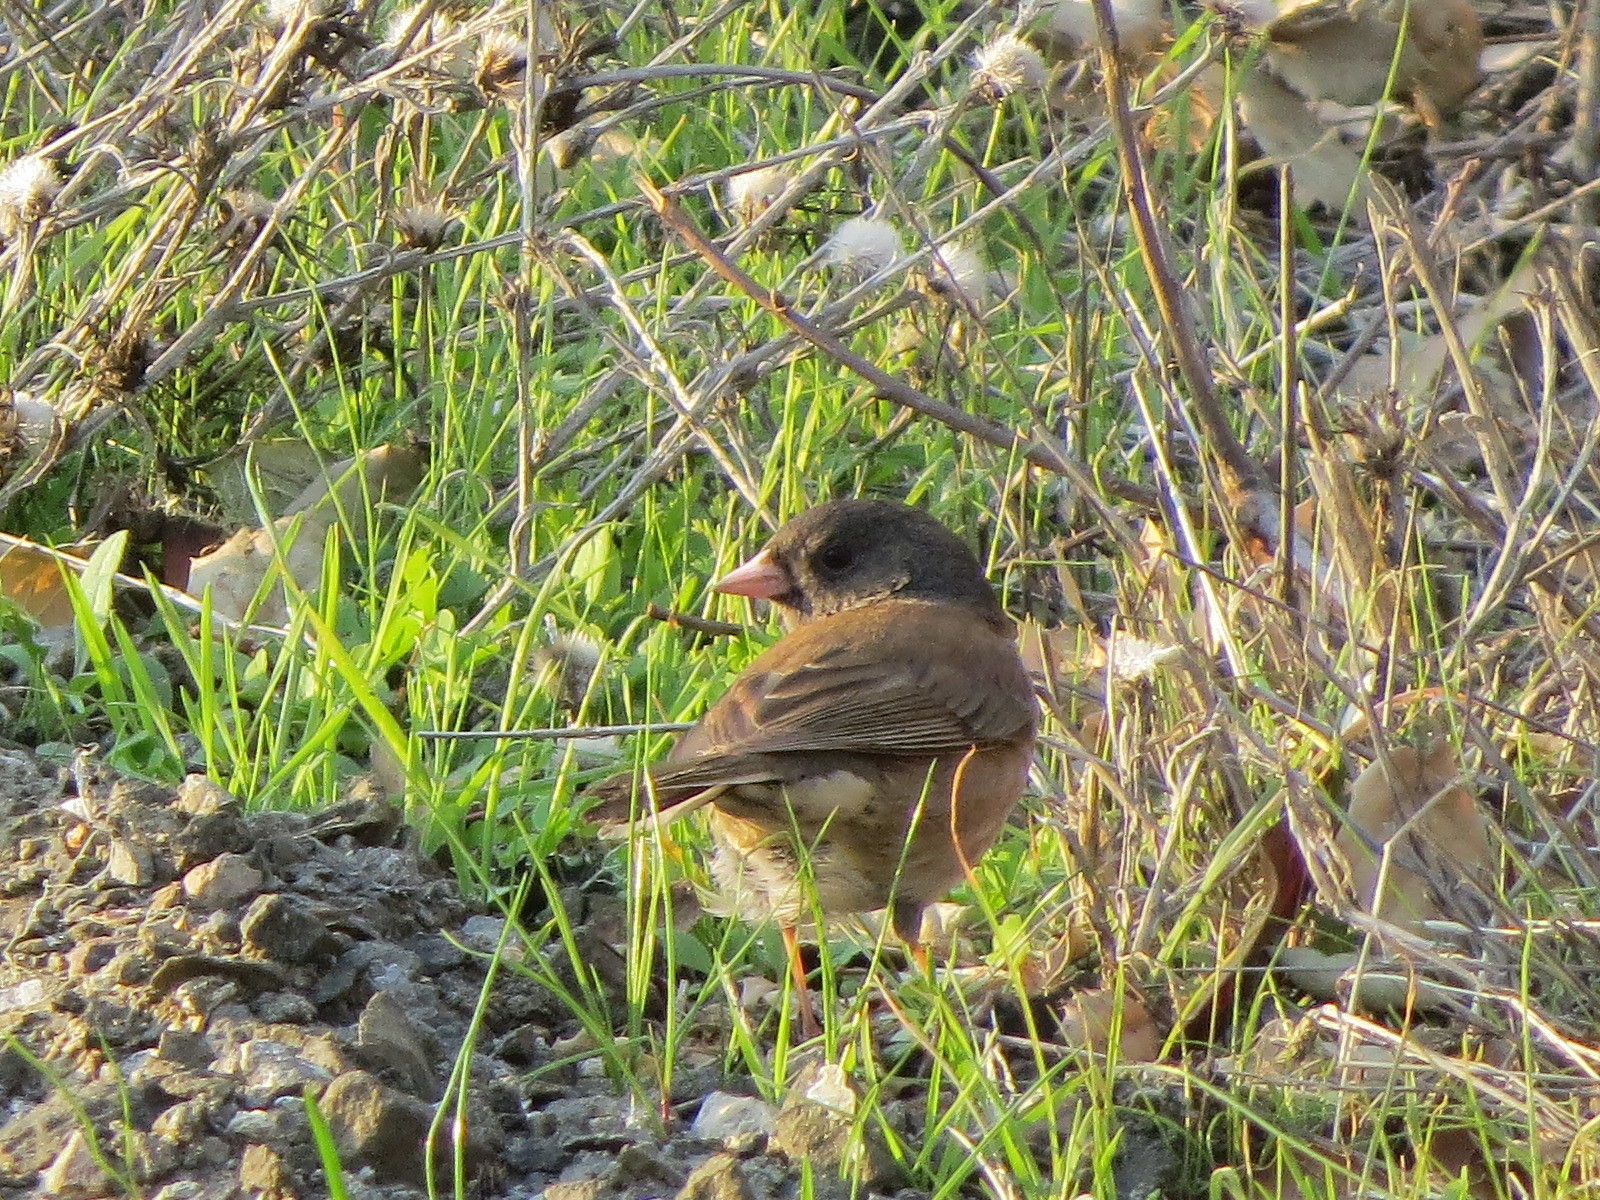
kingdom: Animalia
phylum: Chordata
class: Aves
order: Passeriformes
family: Passerellidae
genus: Junco
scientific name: Junco hyemalis
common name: Dark-eyed junco
